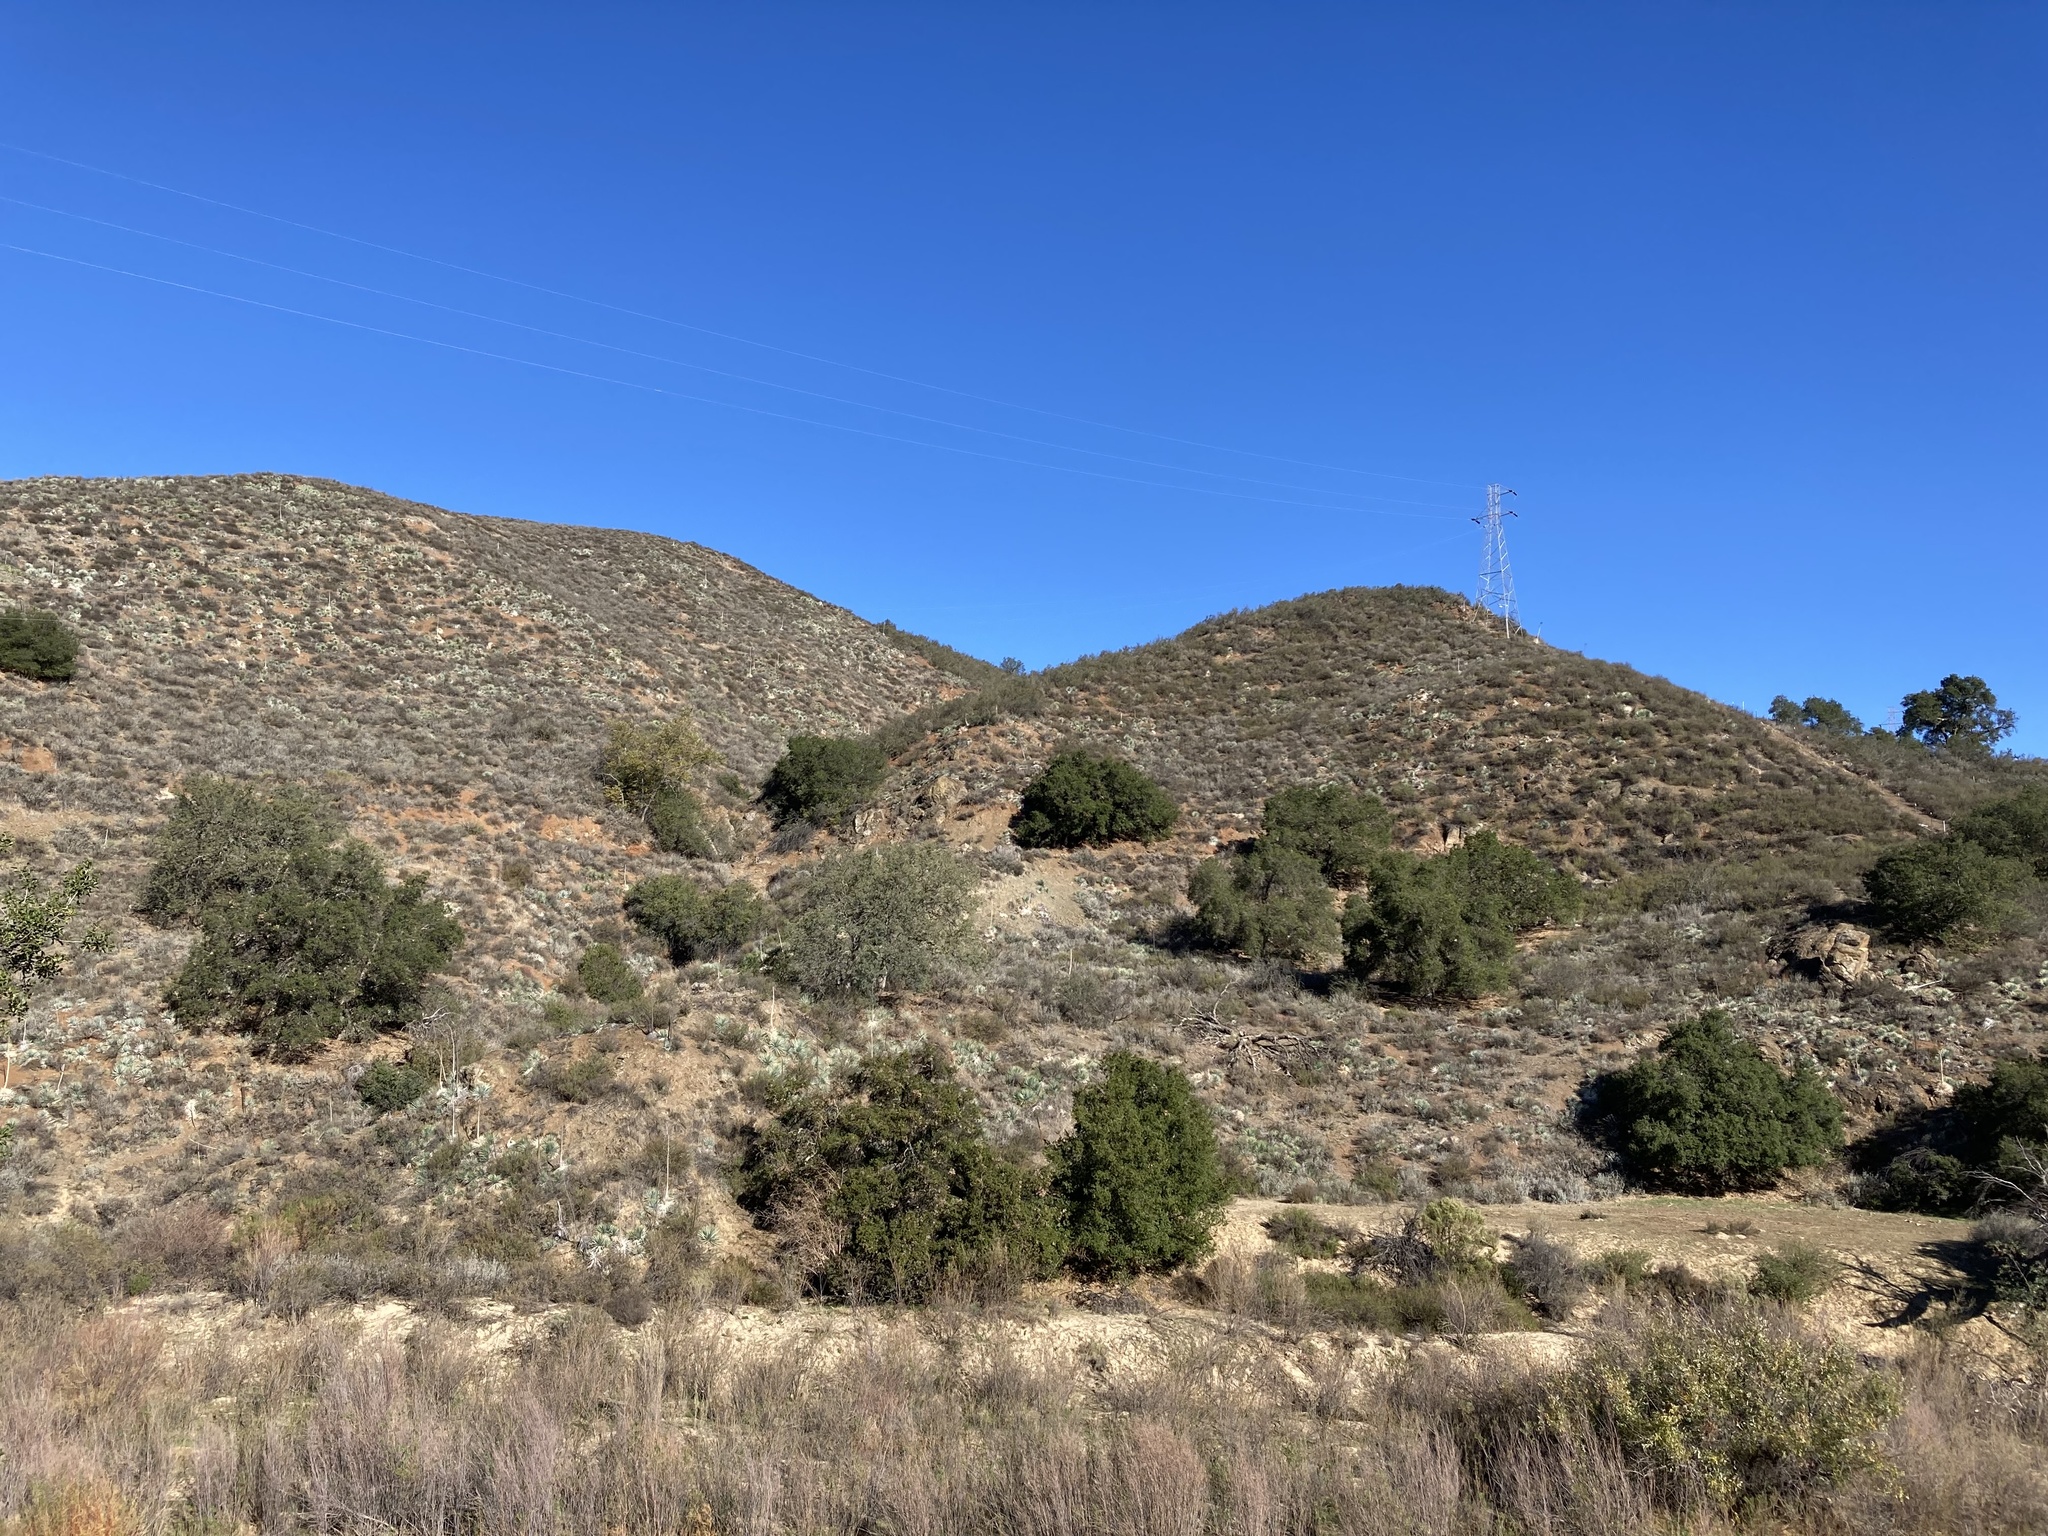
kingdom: Plantae
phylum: Tracheophyta
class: Liliopsida
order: Asparagales
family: Asparagaceae
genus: Hesperoyucca
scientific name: Hesperoyucca whipplei
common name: Our lord's-candle
